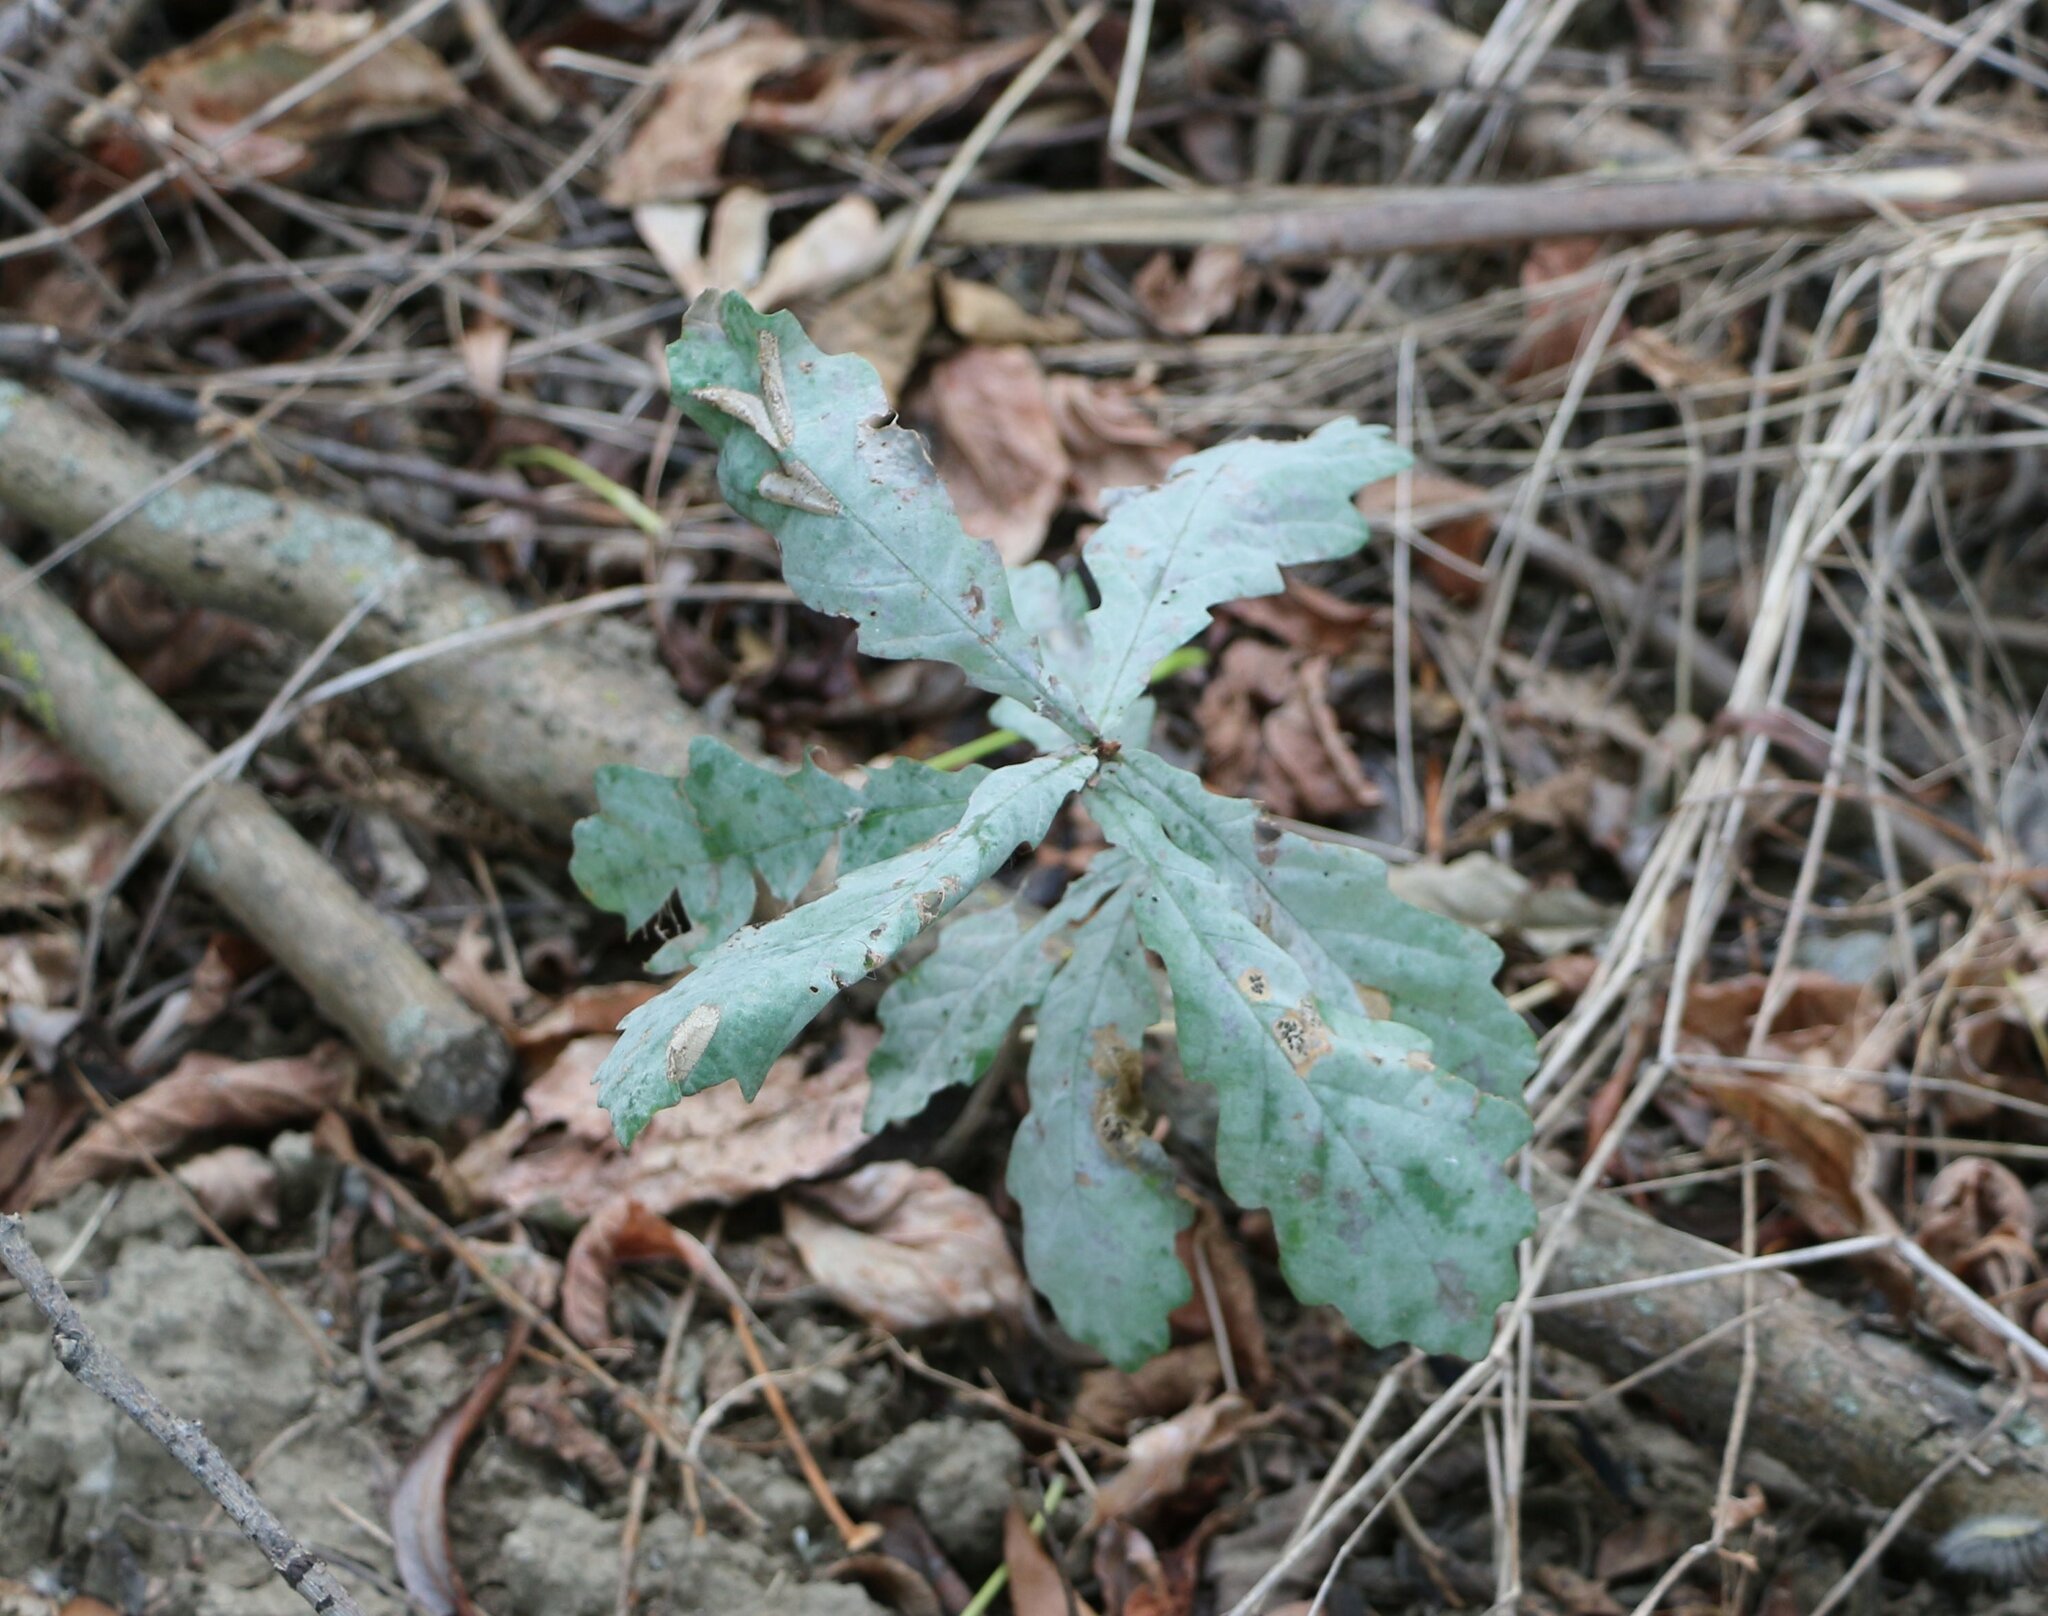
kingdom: Fungi
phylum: Ascomycota
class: Leotiomycetes
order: Helotiales
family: Erysiphaceae
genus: Erysiphe
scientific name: Erysiphe alphitoides
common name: Oak mildew
